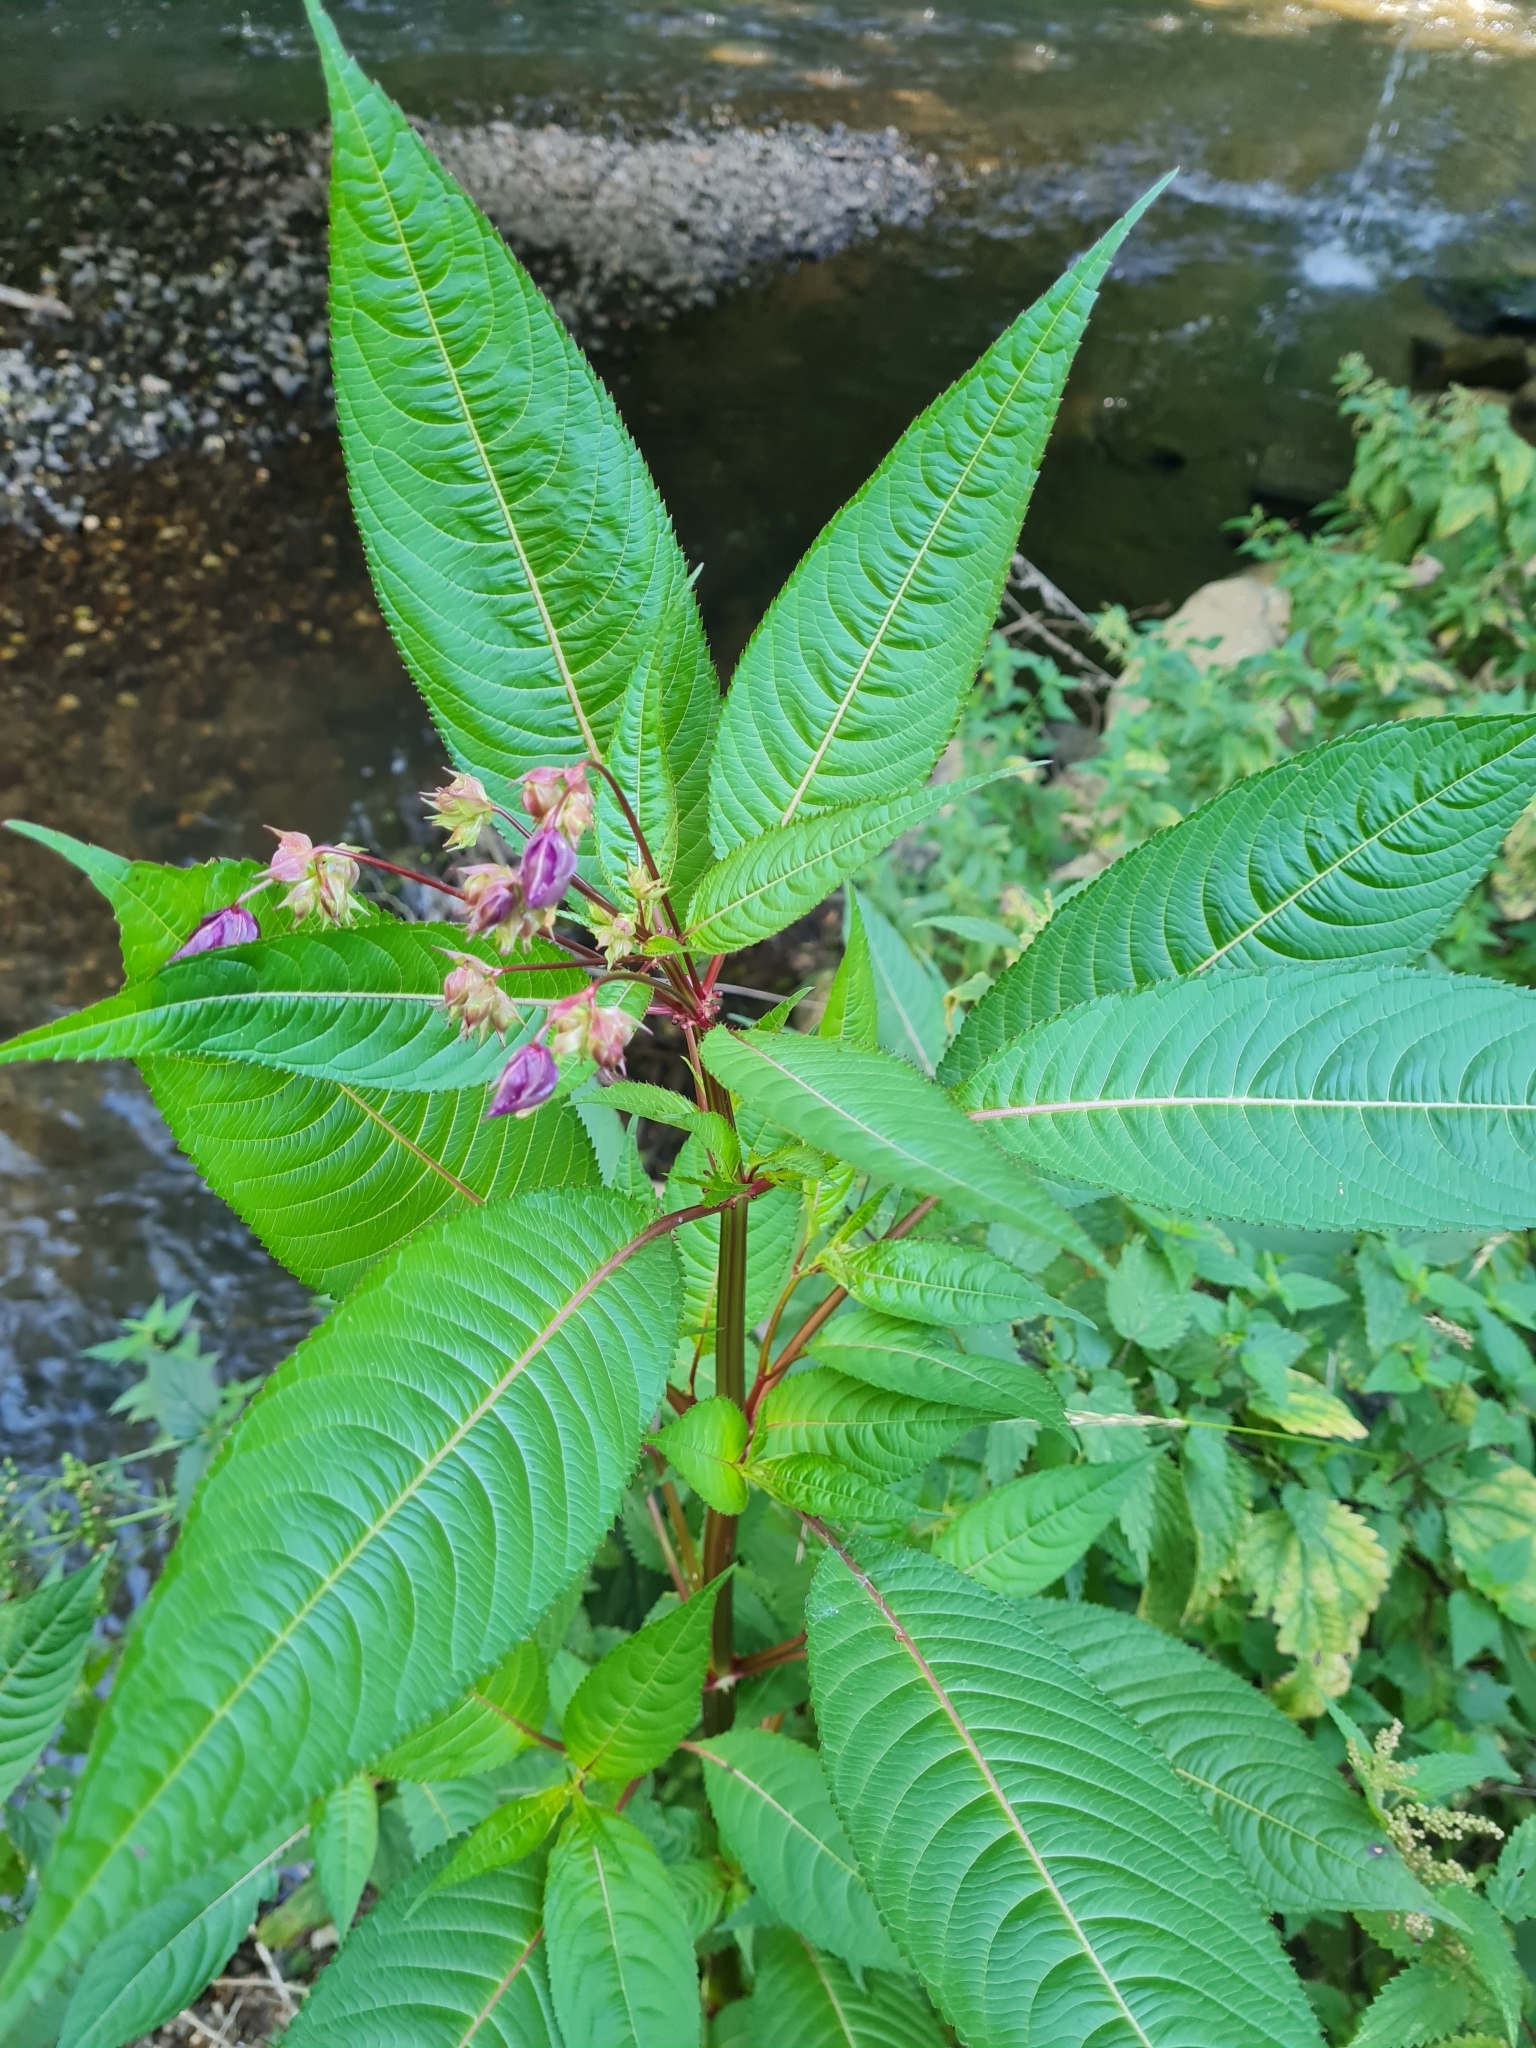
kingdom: Plantae
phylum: Tracheophyta
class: Magnoliopsida
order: Ericales
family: Balsaminaceae
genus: Impatiens
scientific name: Impatiens glandulifera
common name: Himalayan balsam
